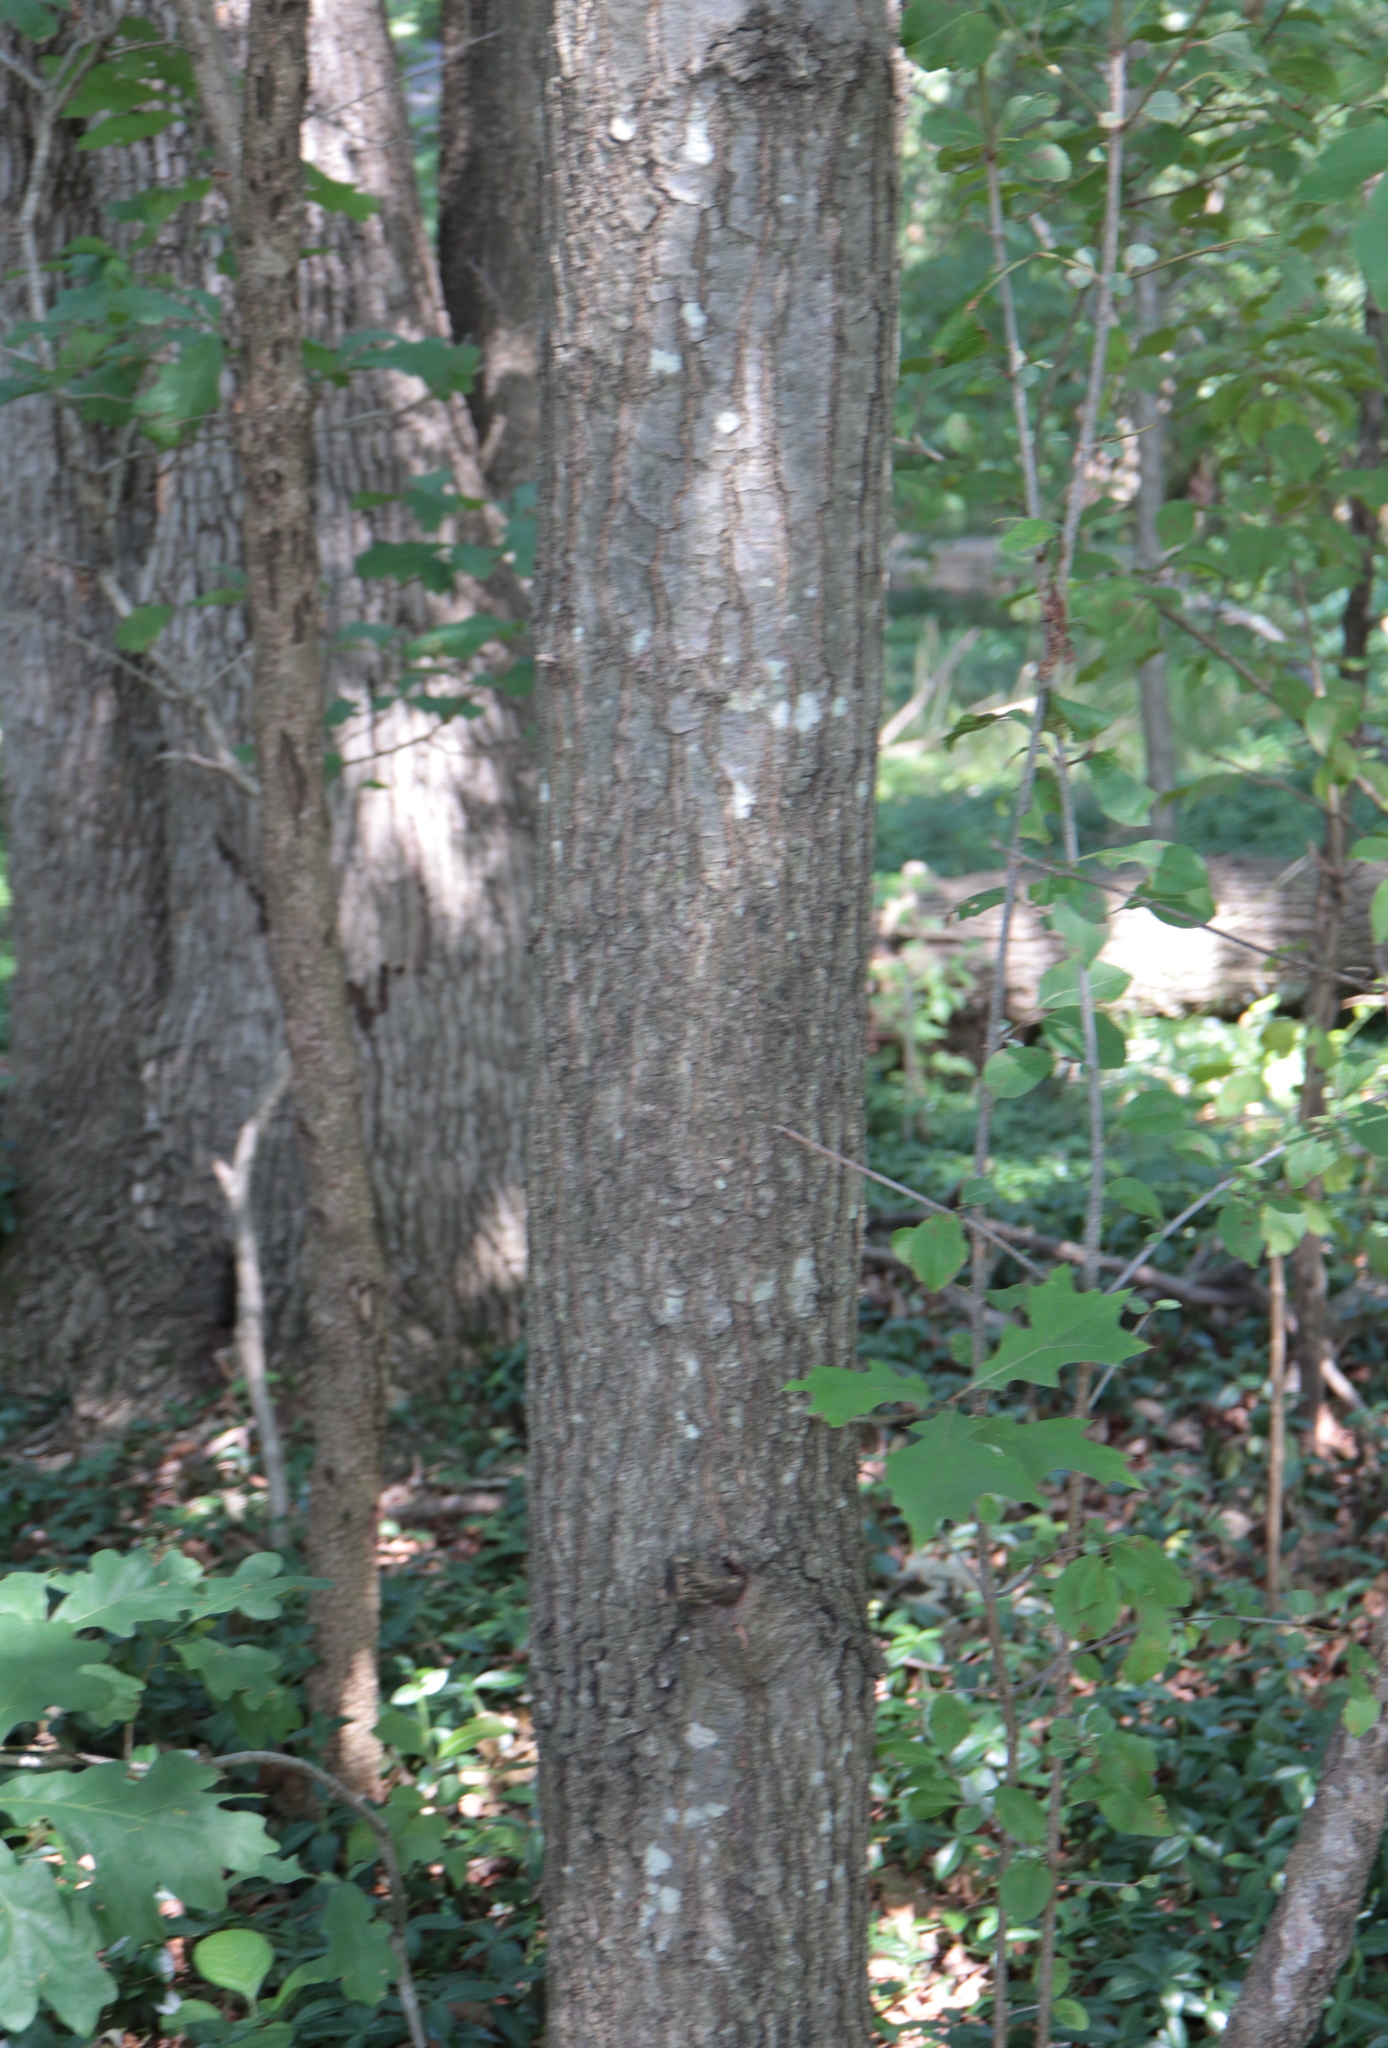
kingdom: Plantae
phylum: Tracheophyta
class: Magnoliopsida
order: Fagales
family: Fagaceae
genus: Quercus
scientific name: Quercus coccinea
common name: Scarlet oak
